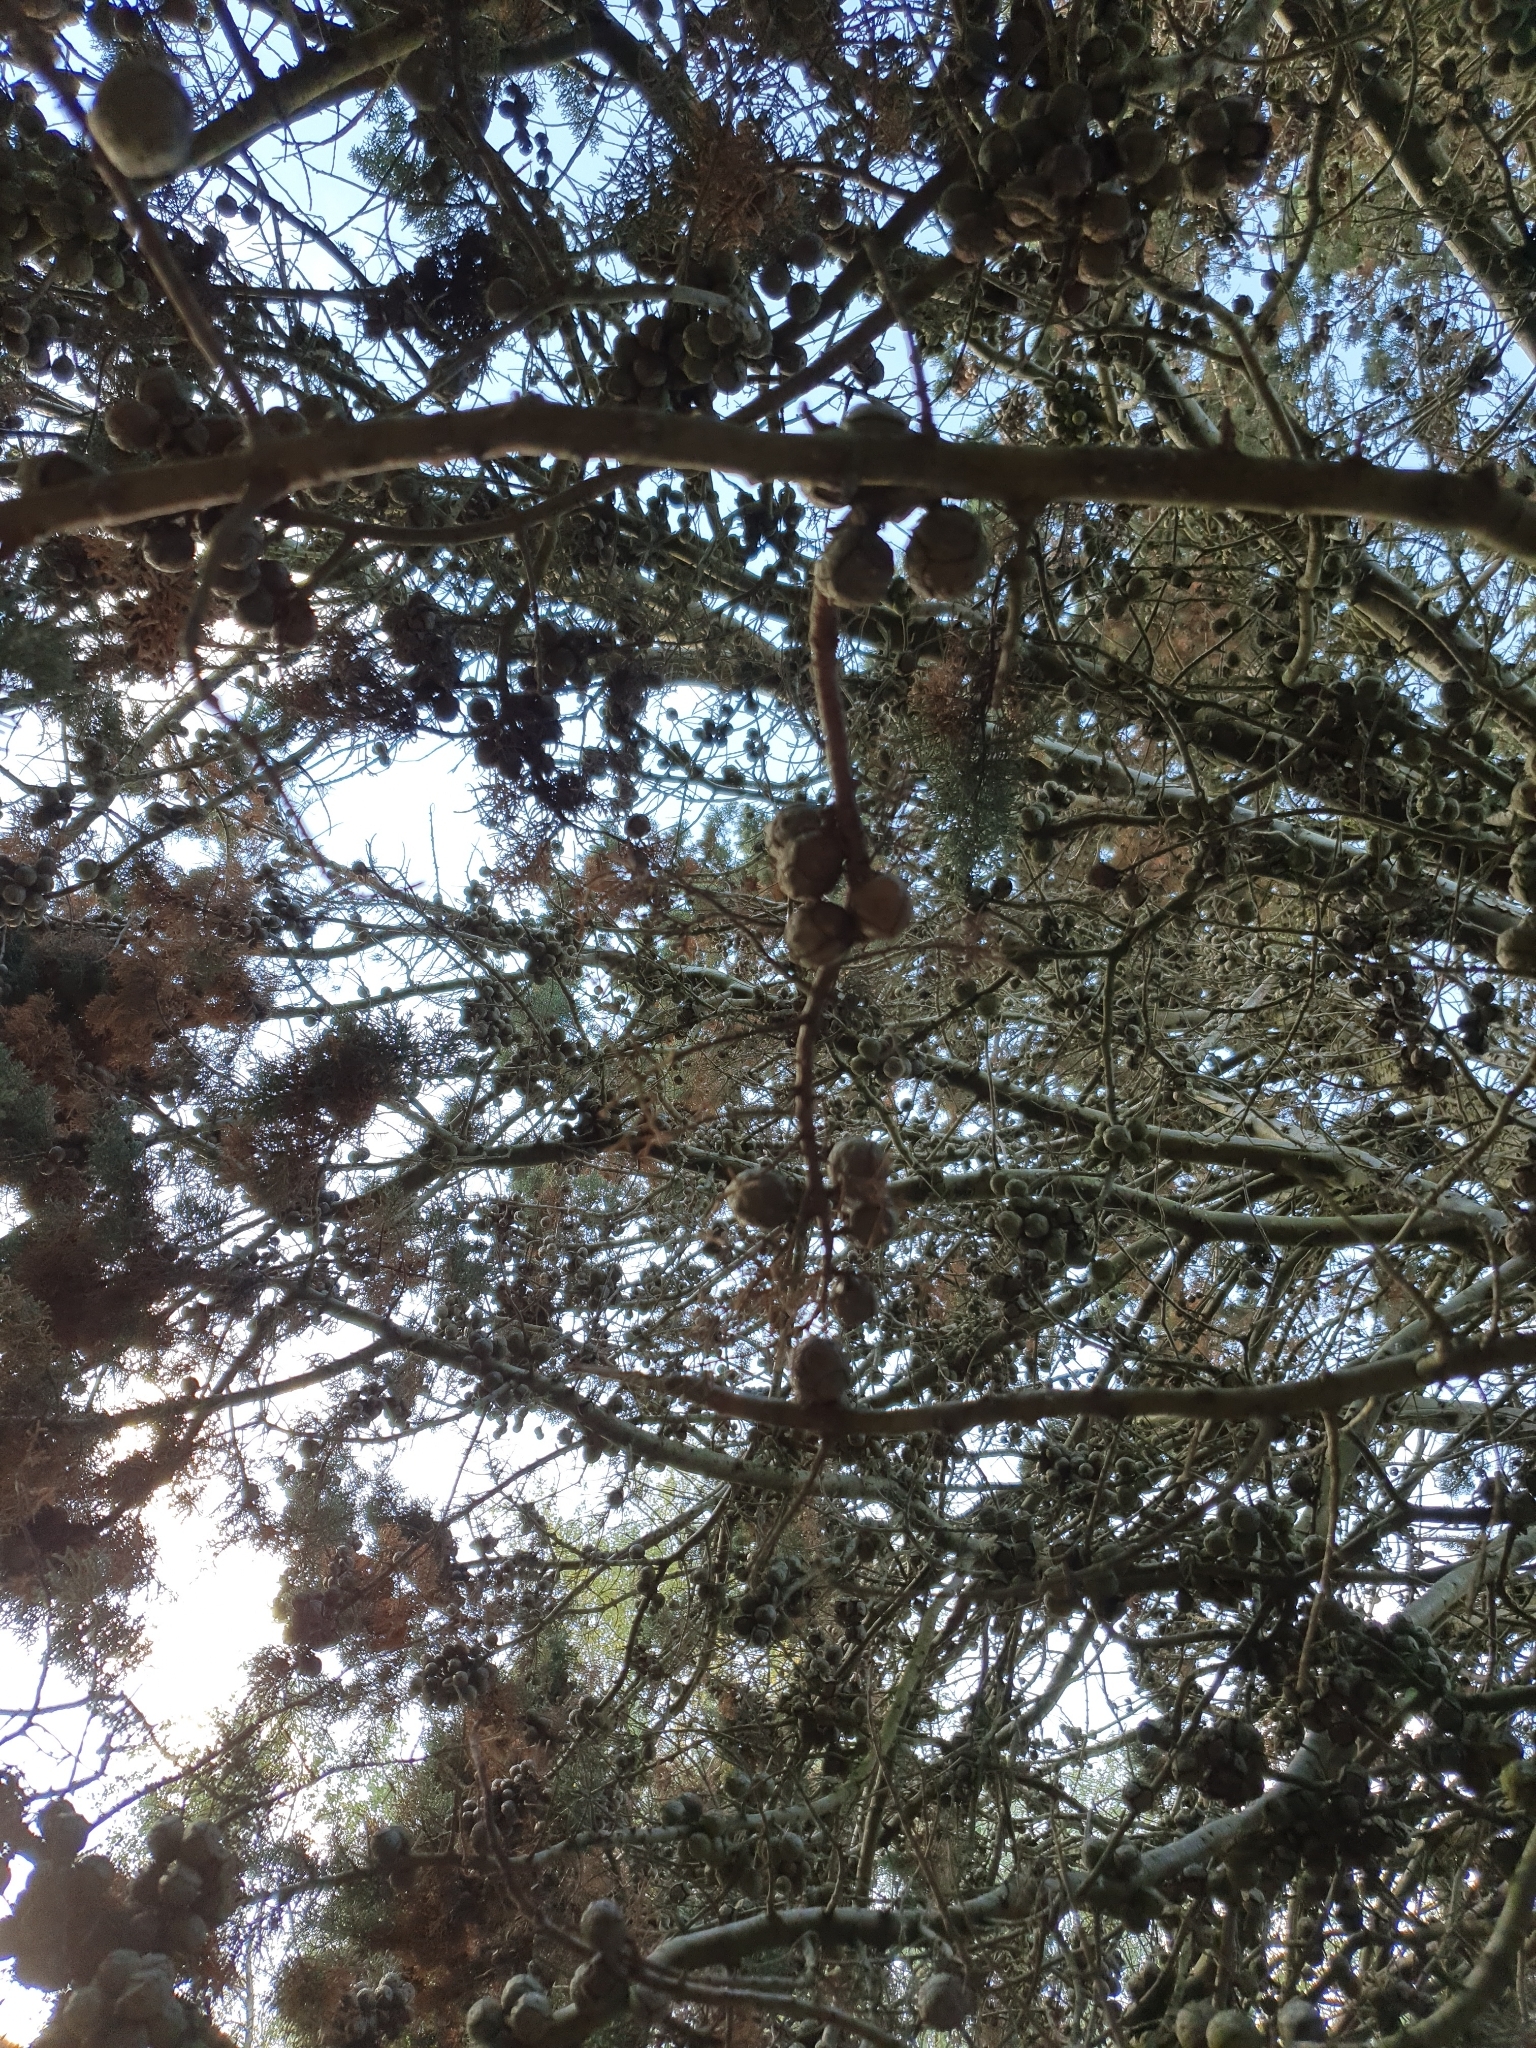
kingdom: Plantae
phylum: Tracheophyta
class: Pinopsida
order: Pinales
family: Cupressaceae
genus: Cupressus
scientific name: Cupressus lusitanica
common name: Mexican cypress
